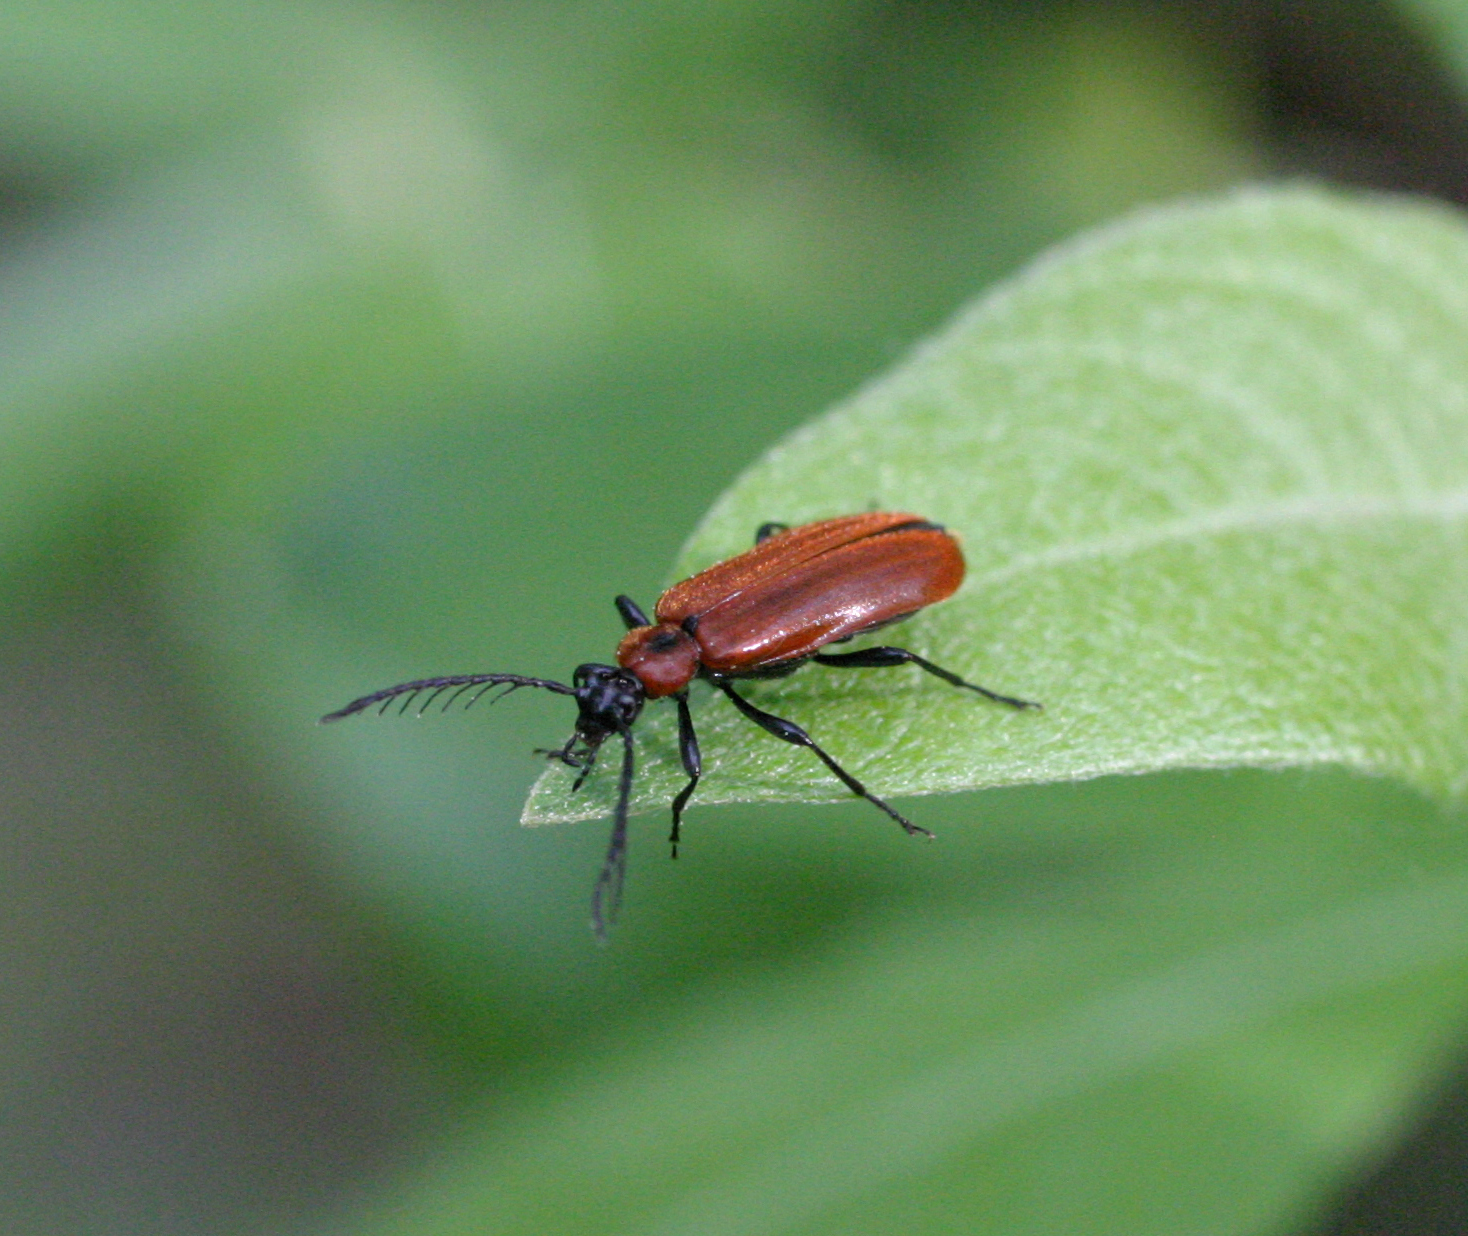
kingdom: Animalia
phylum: Arthropoda
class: Insecta
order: Coleoptera
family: Pyrochroidae
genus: Schizotus
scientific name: Schizotus pectinicornis
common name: Scarce cardinal beetle
